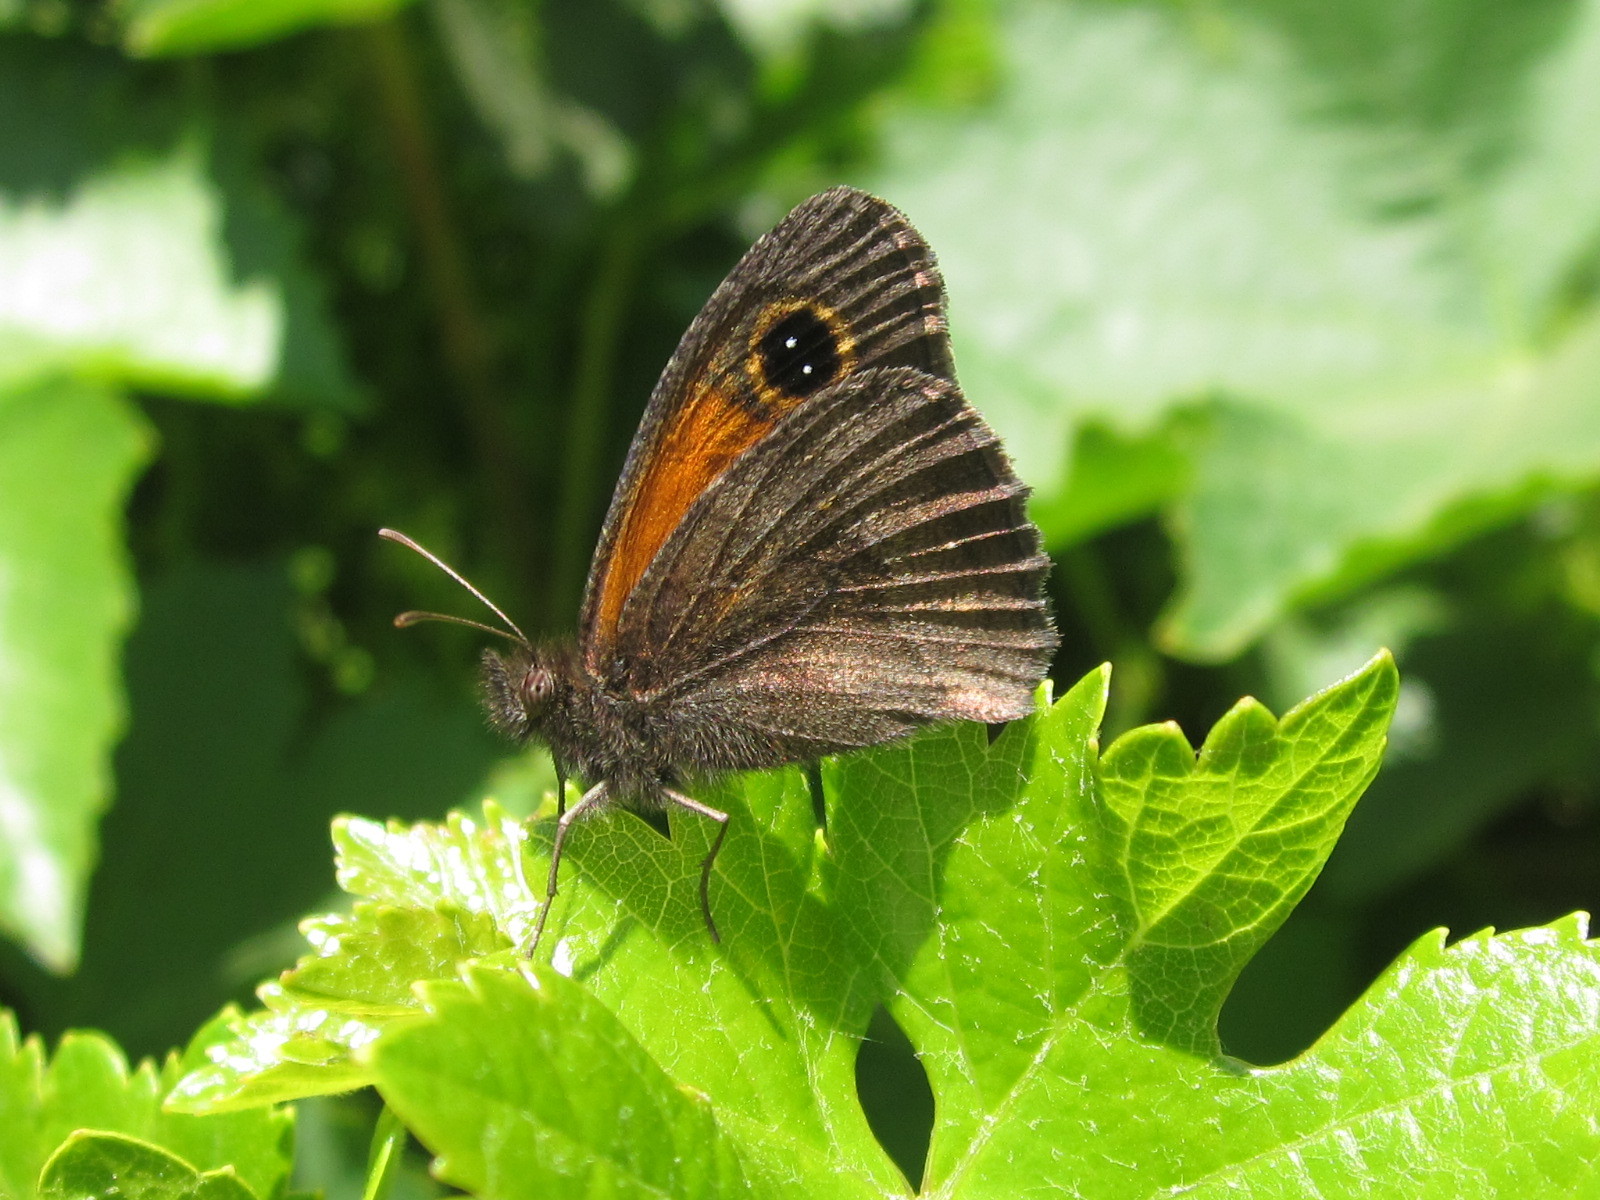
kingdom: Animalia
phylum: Arthropoda
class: Insecta
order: Lepidoptera
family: Nymphalidae
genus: Auca
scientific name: Auca barrosi
